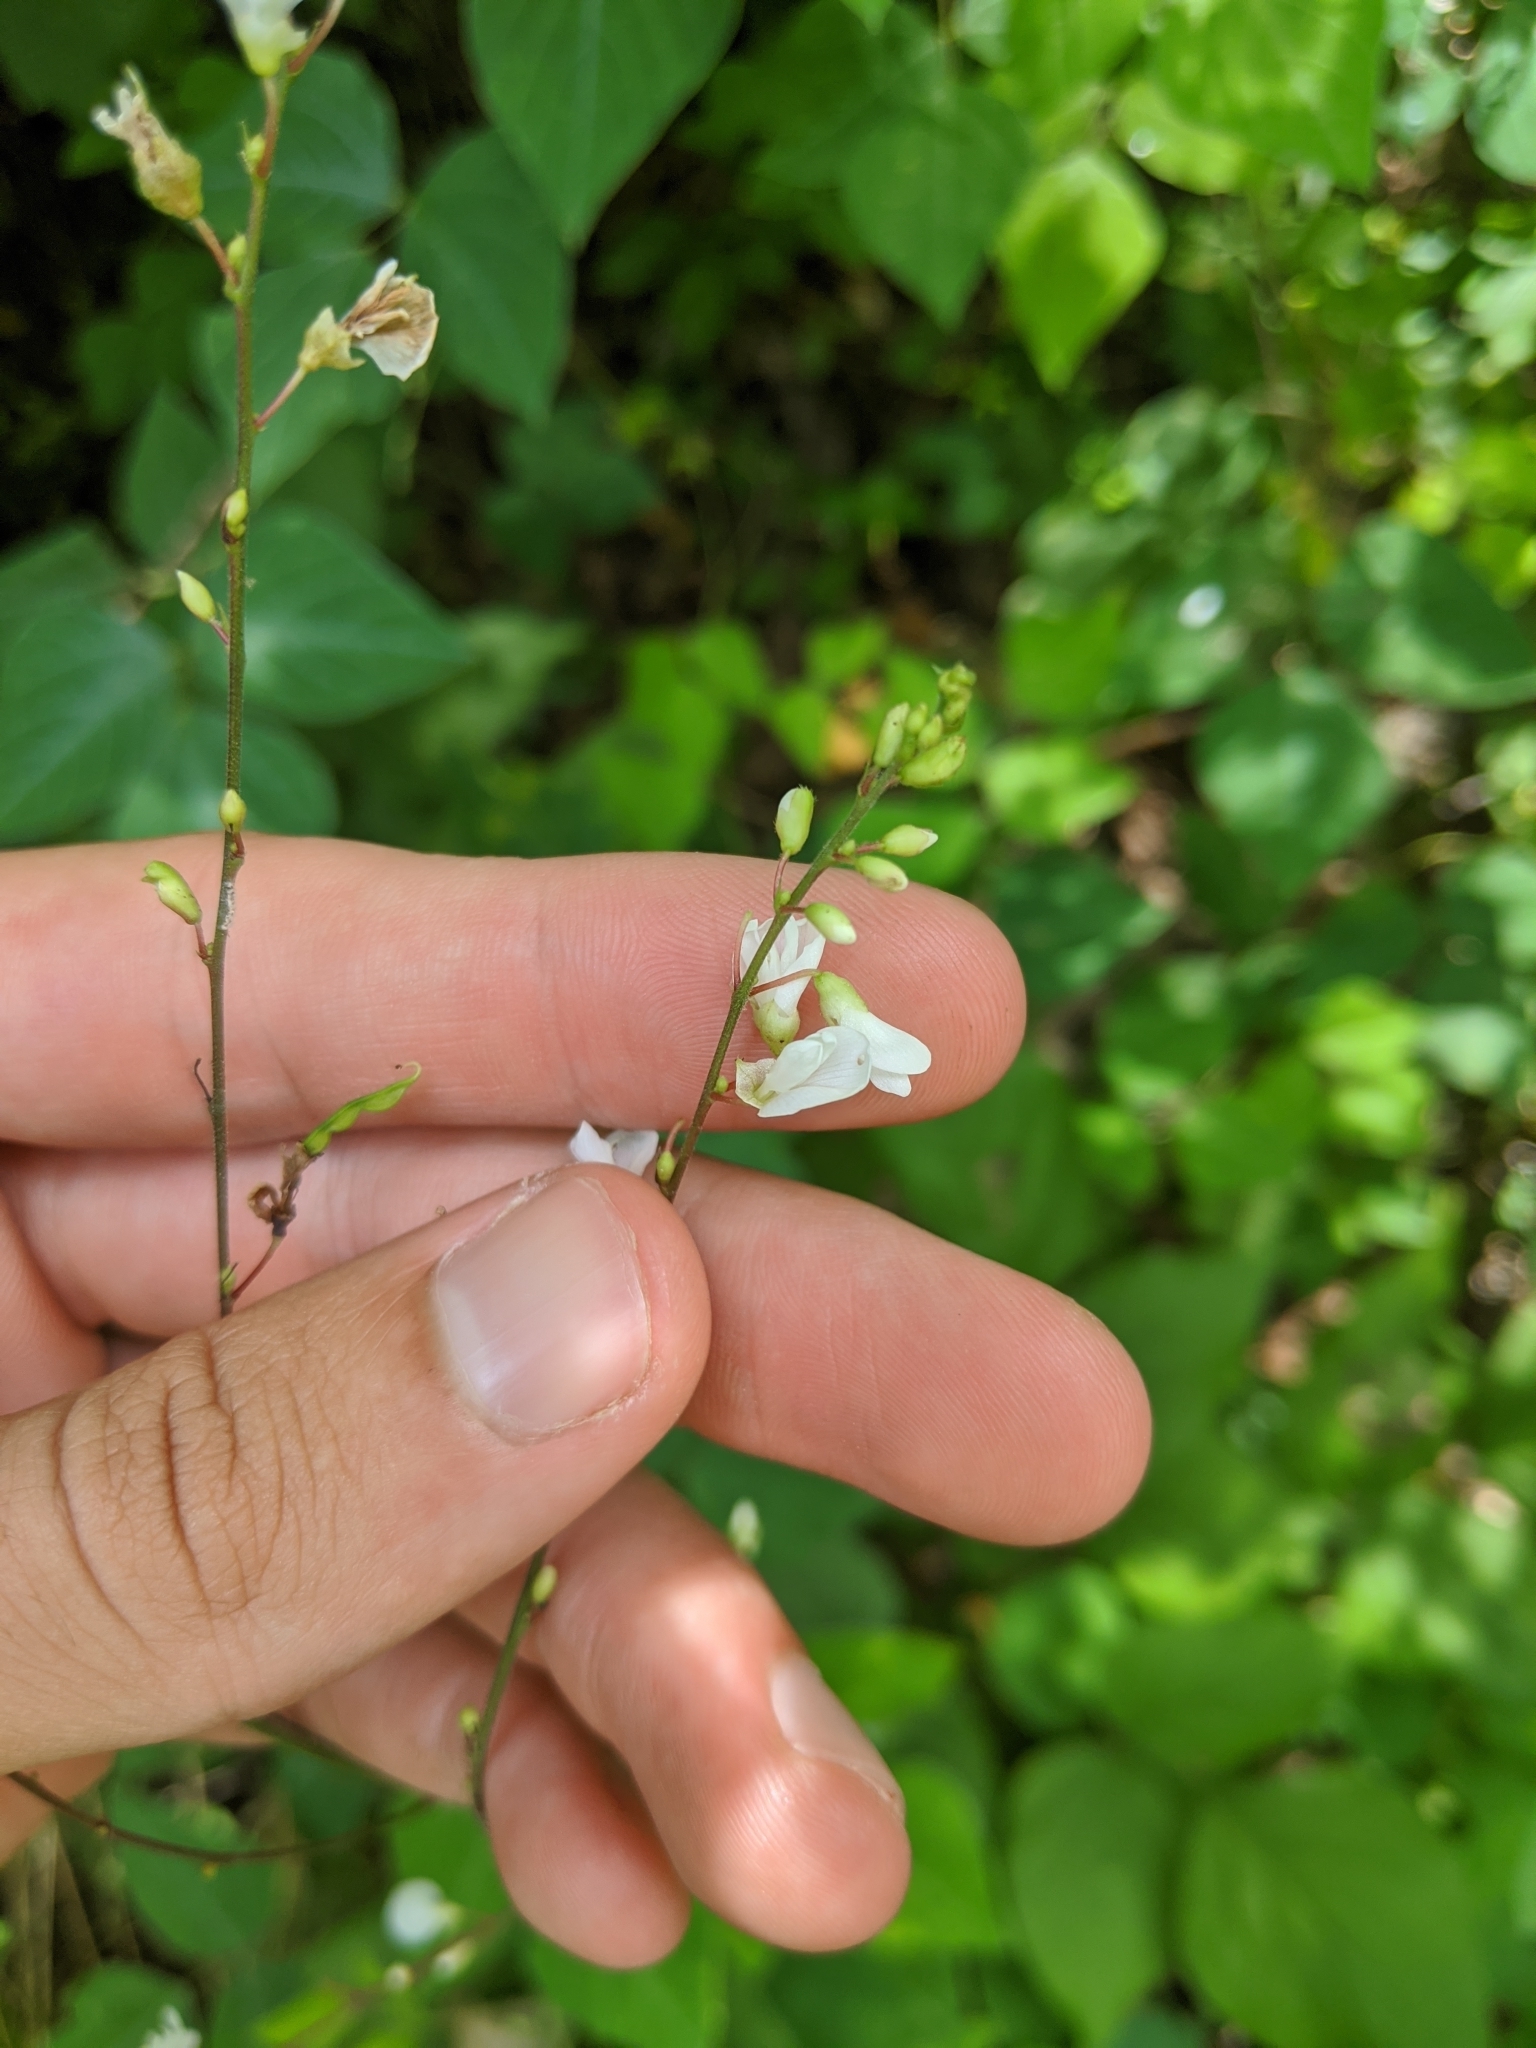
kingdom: Plantae
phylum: Tracheophyta
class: Magnoliopsida
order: Fabales
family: Fabaceae
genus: Hylodesmum
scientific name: Hylodesmum glutinosum
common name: Clustered-leaved tick-trefoil
